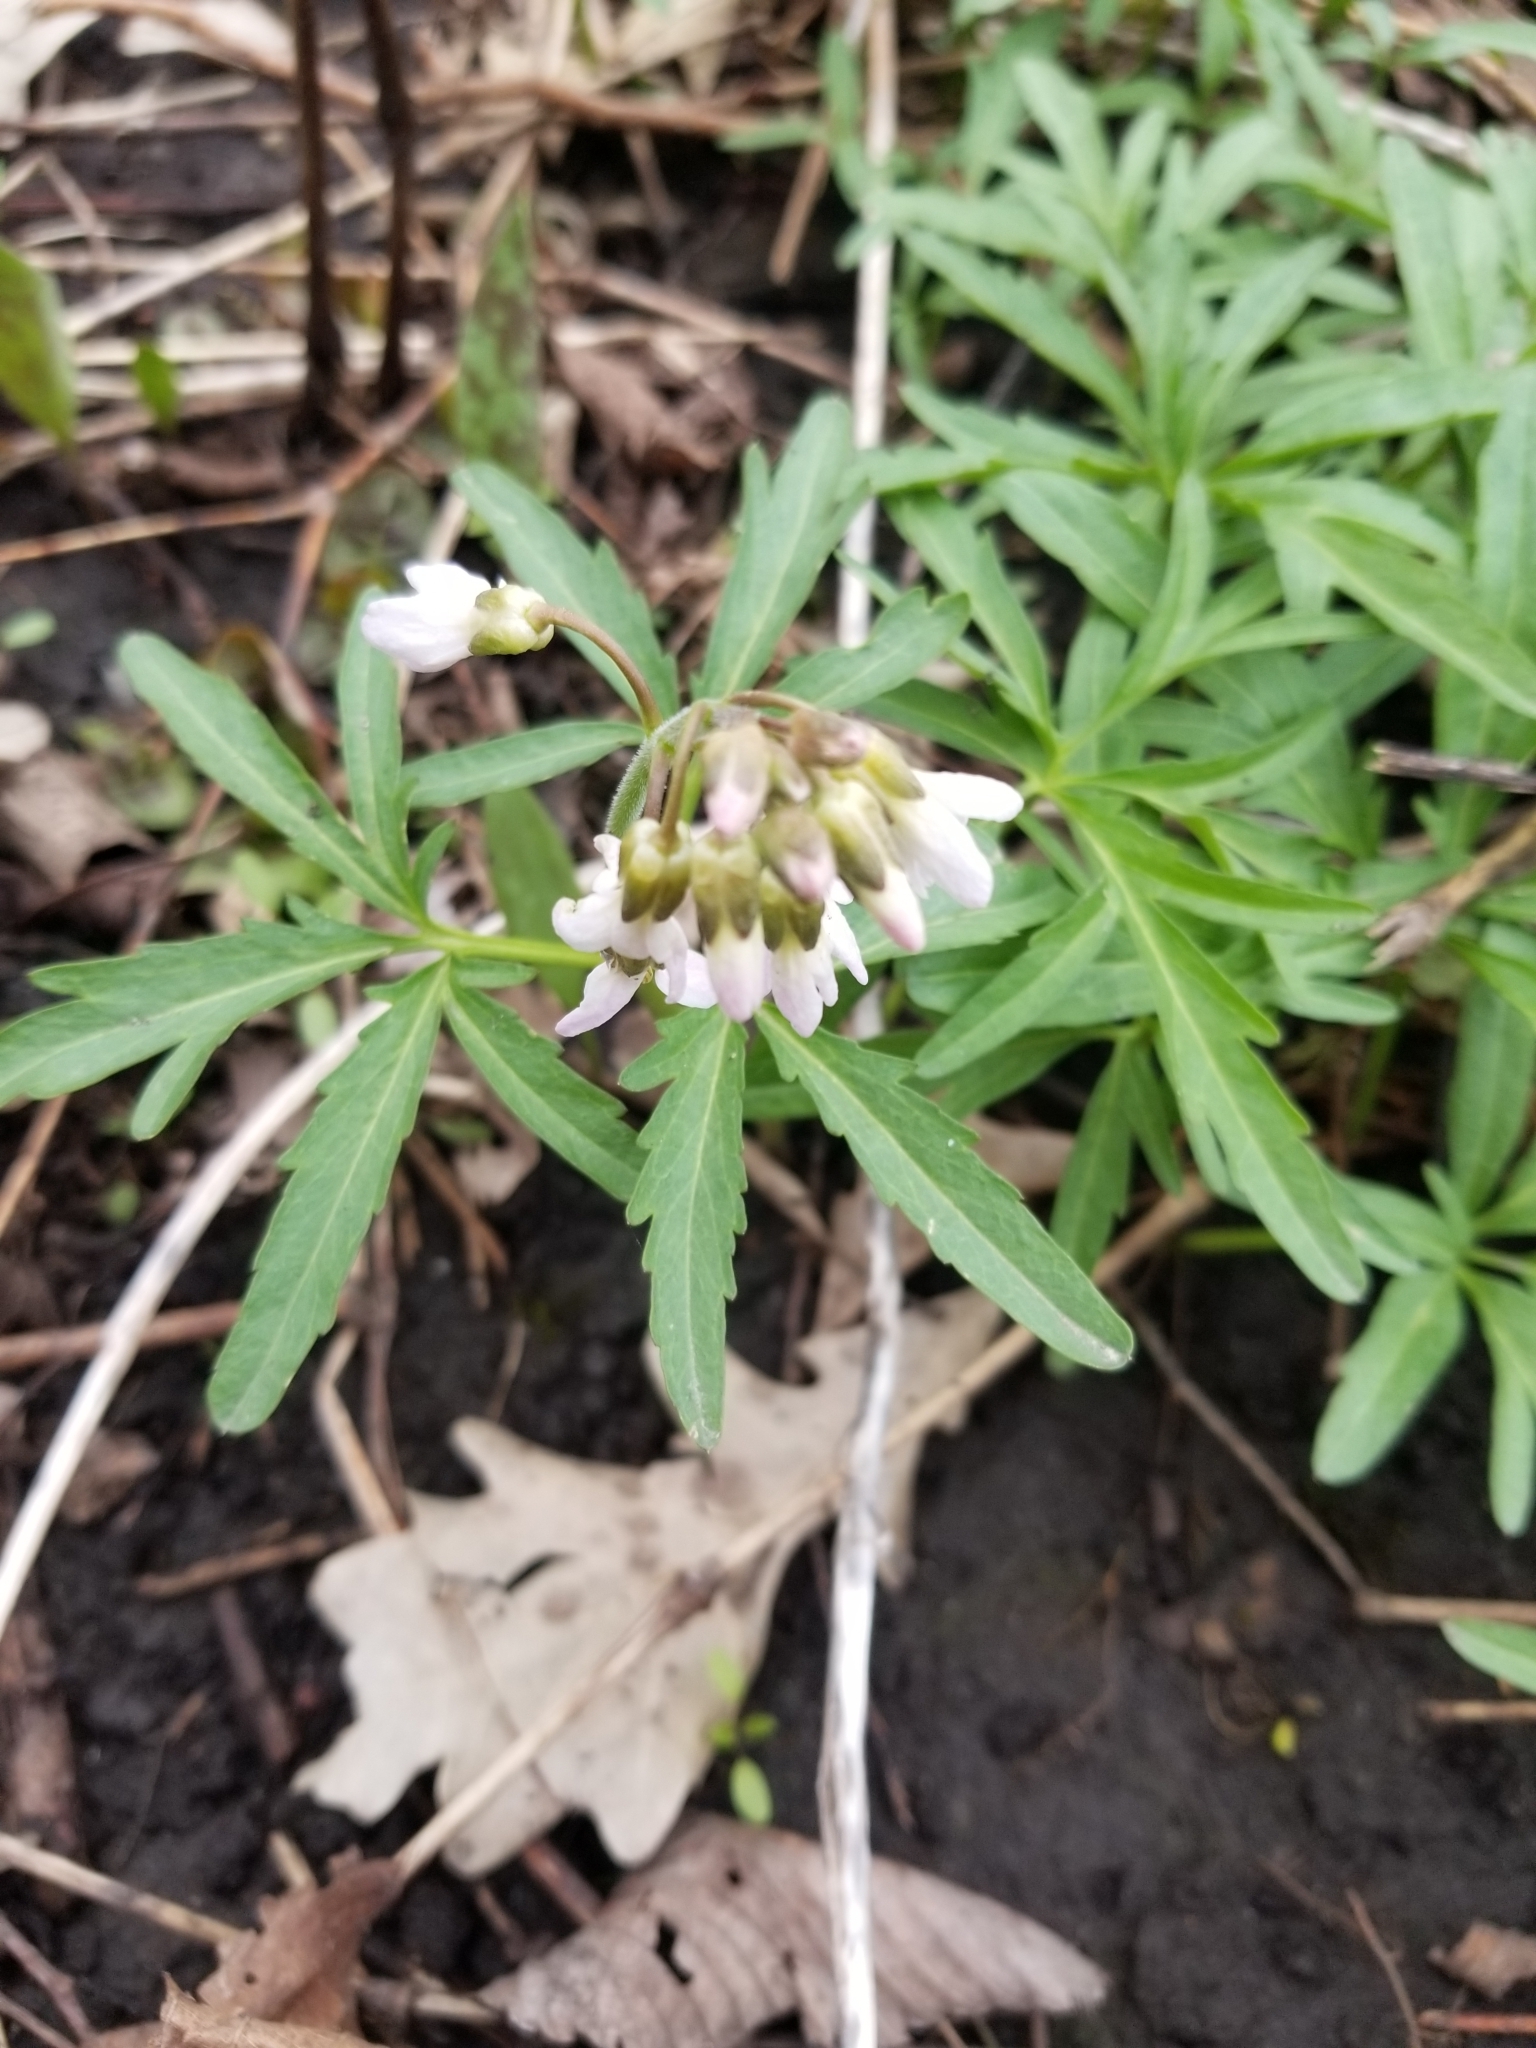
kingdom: Plantae
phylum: Tracheophyta
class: Magnoliopsida
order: Brassicales
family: Brassicaceae
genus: Cardamine
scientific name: Cardamine concatenata
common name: Cut-leaf toothcup
